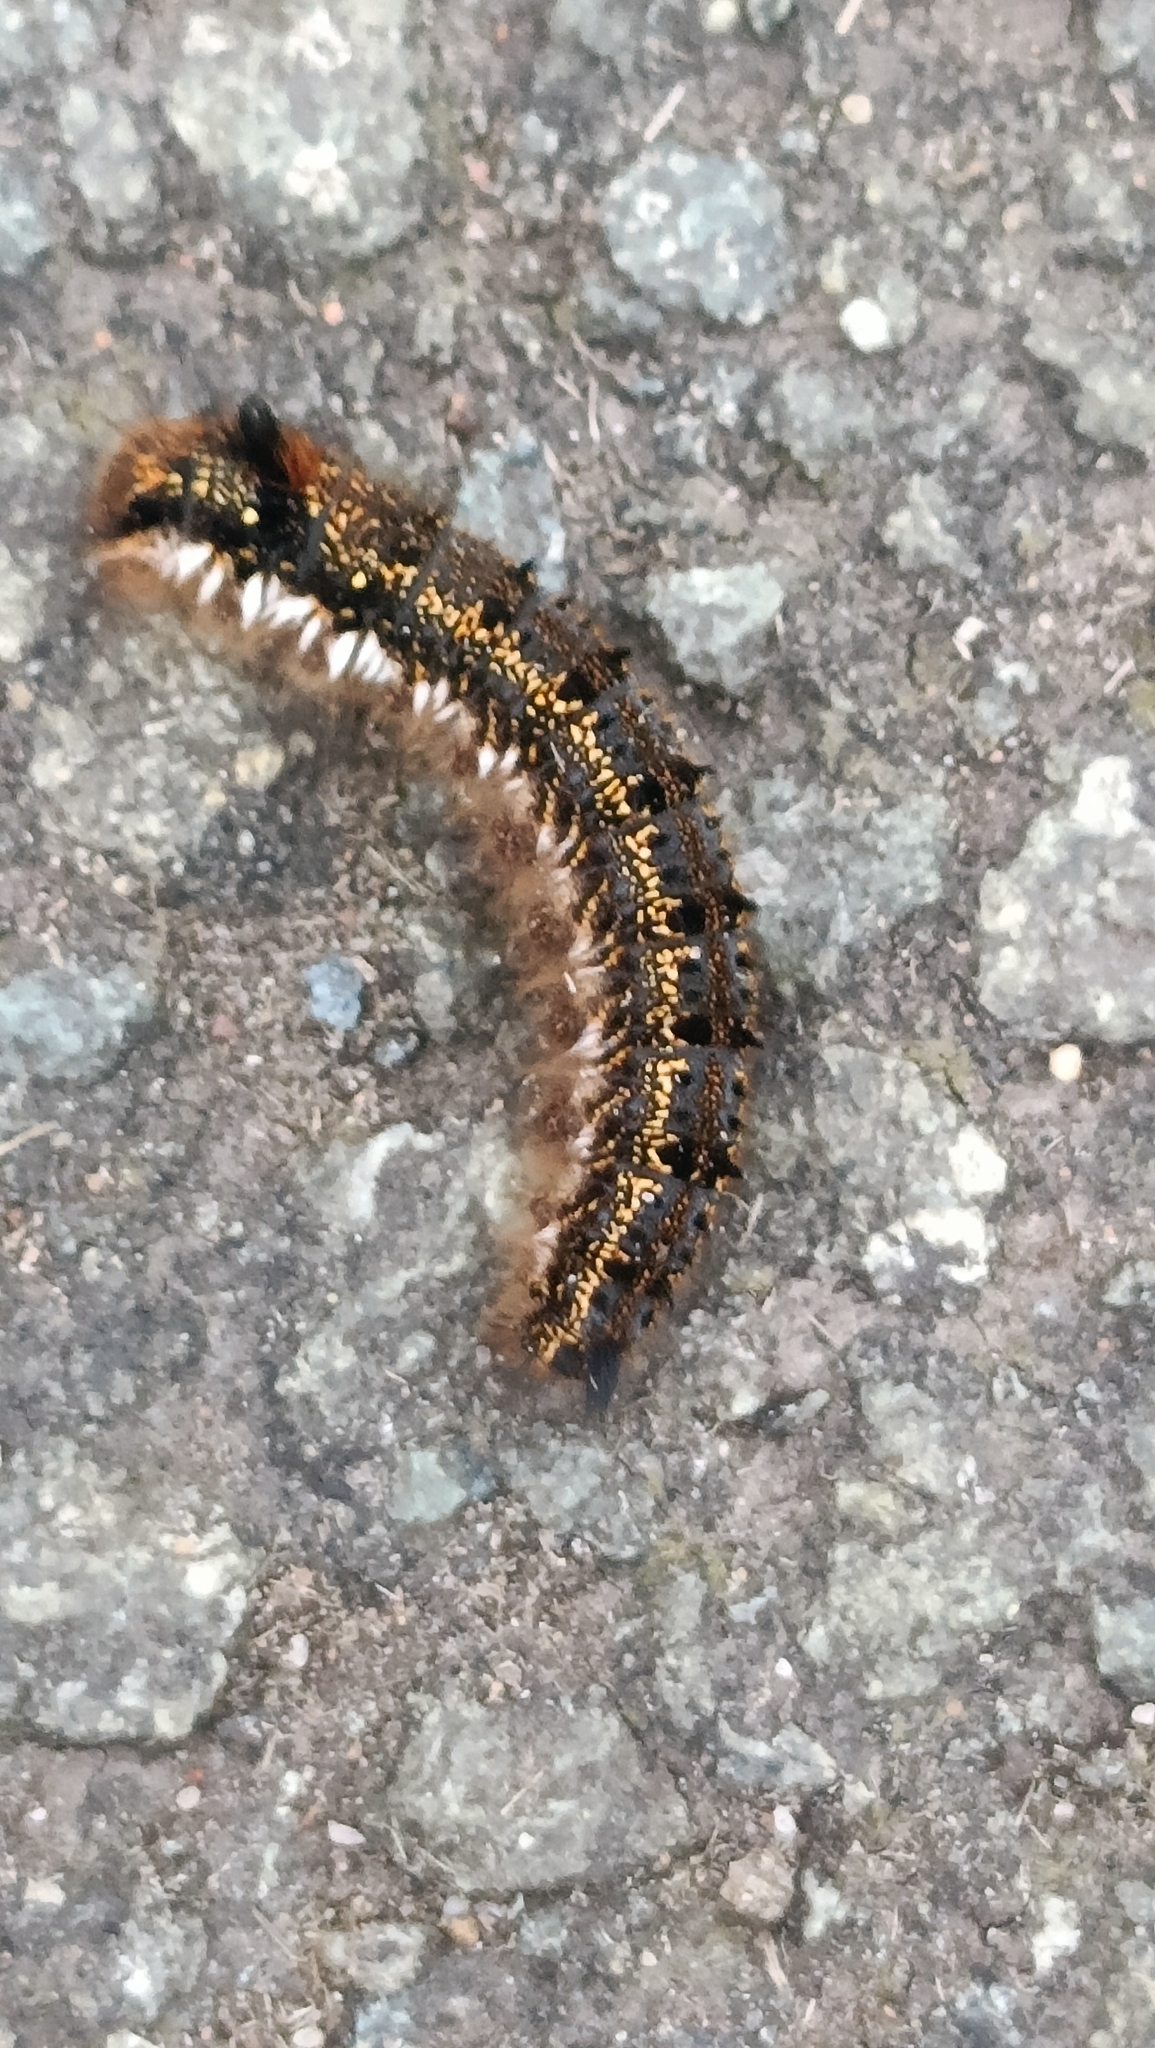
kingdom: Animalia
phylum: Arthropoda
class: Insecta
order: Lepidoptera
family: Lasiocampidae
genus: Euthrix
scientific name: Euthrix potatoria
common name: Drinker
